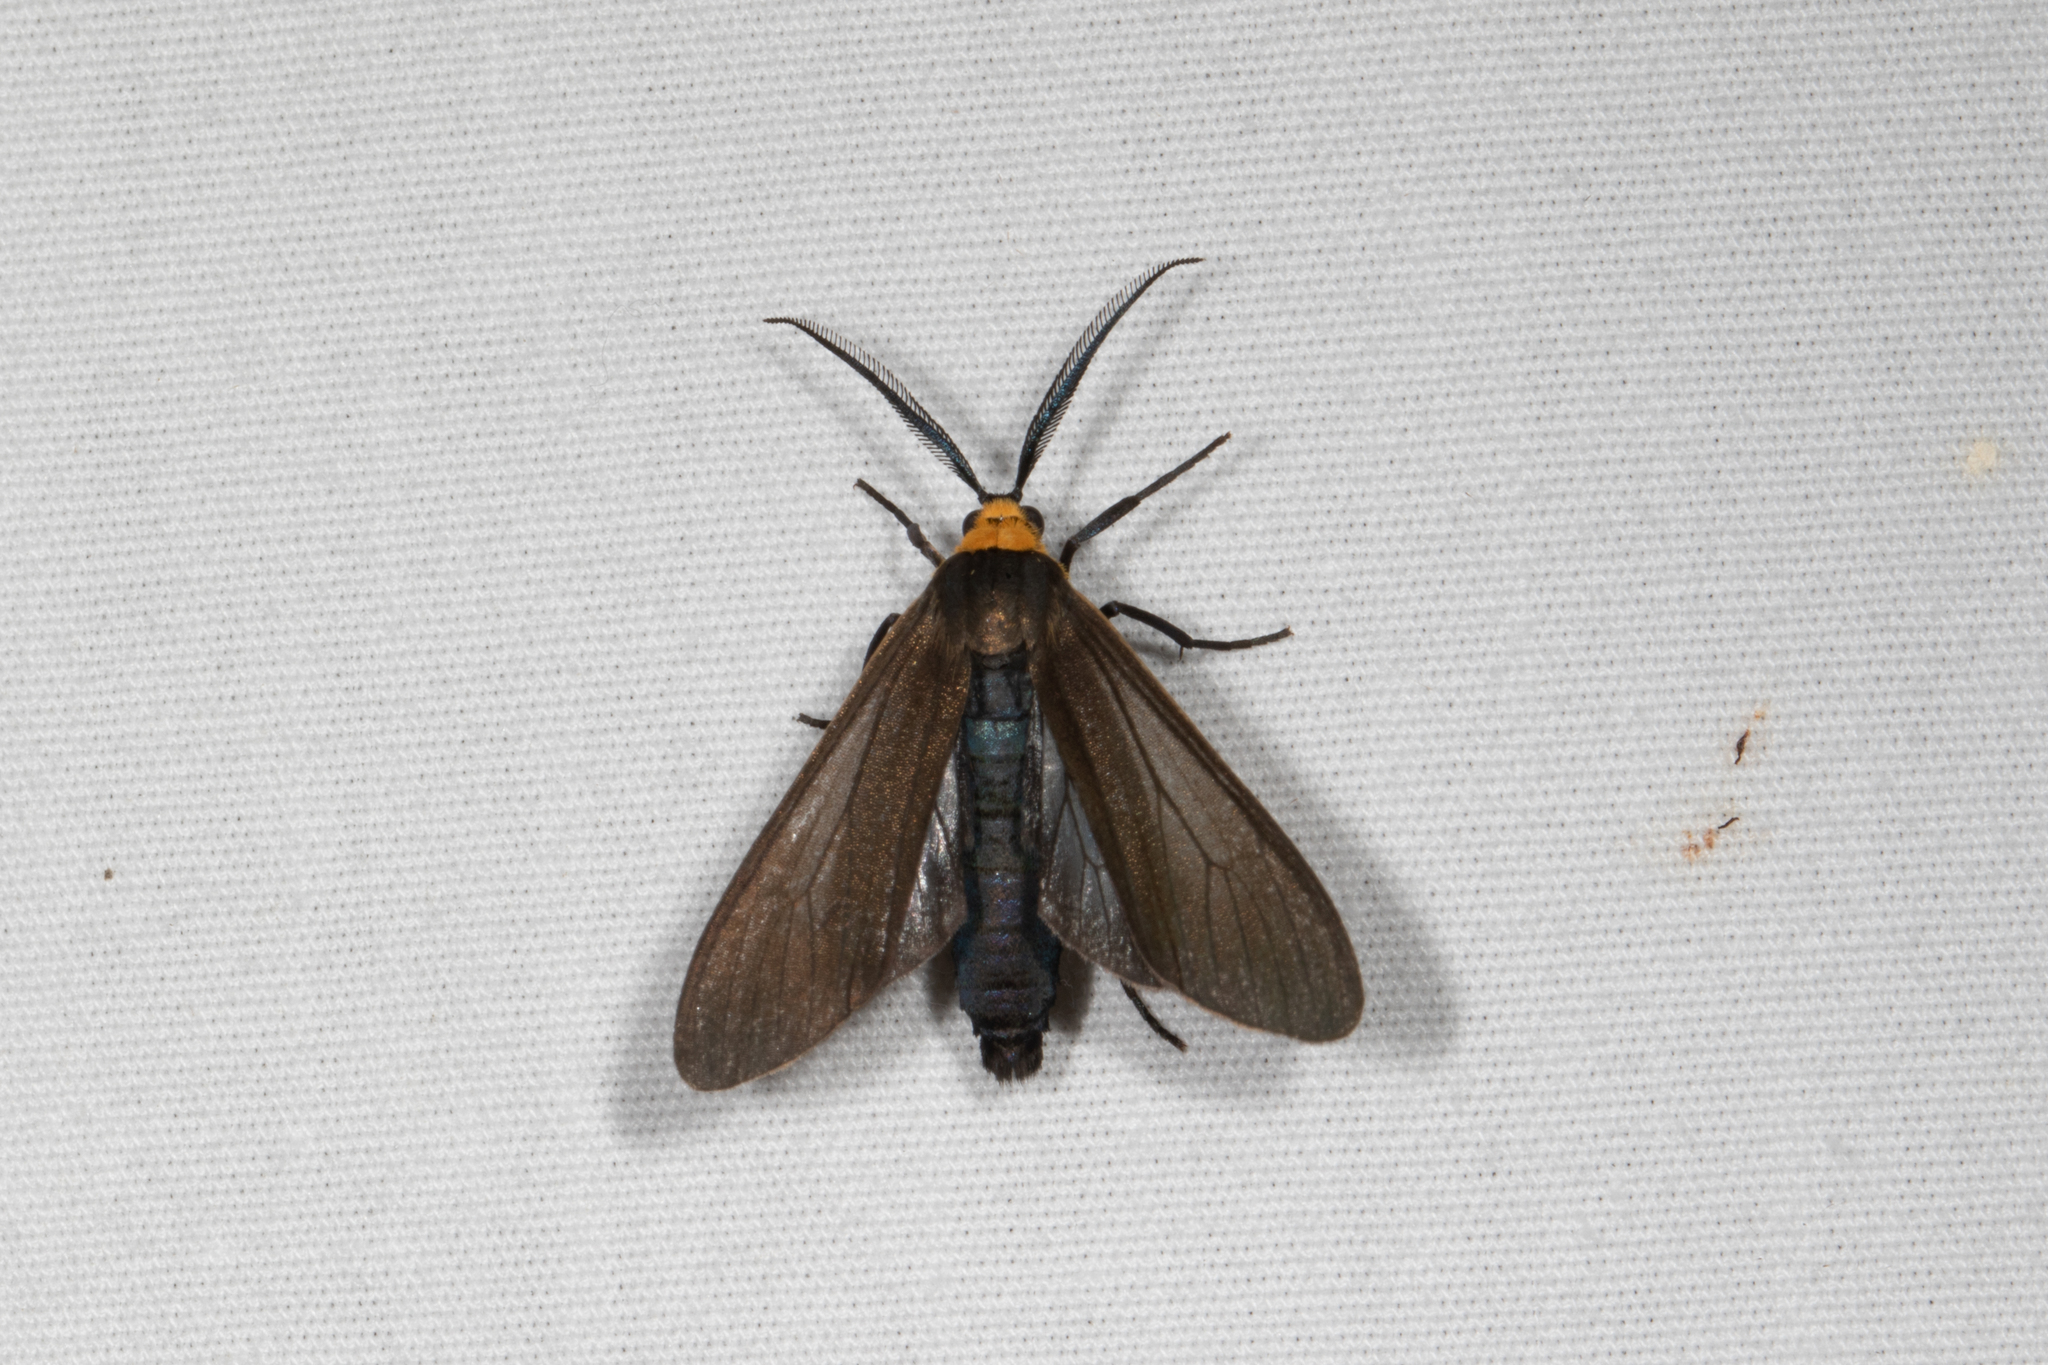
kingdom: Animalia
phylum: Arthropoda
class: Insecta
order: Lepidoptera
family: Erebidae
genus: Cisseps
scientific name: Cisseps fulvicollis
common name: Yellow-collared scape moth
